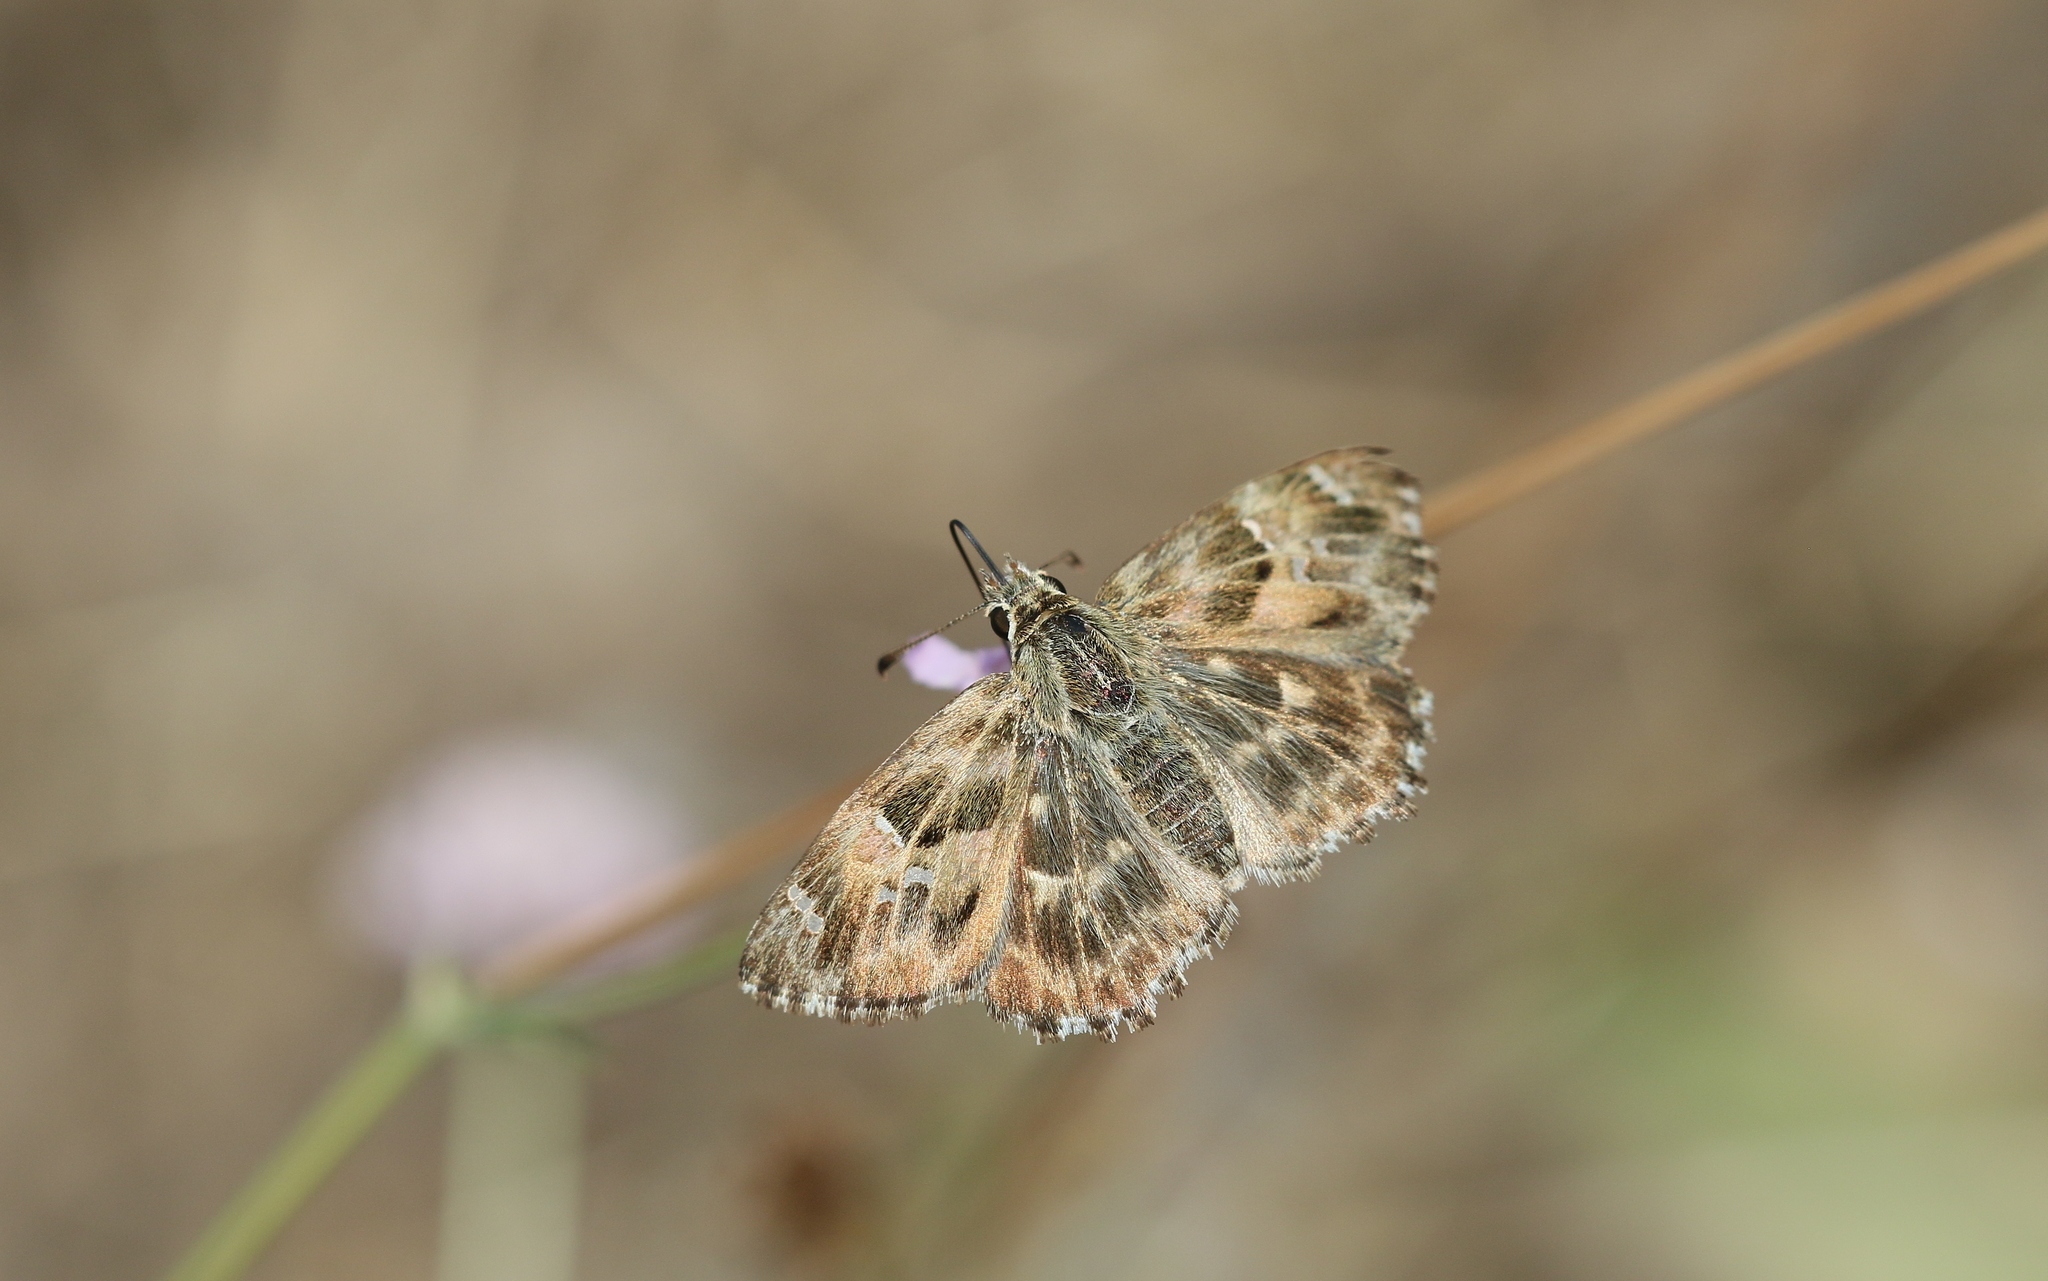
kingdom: Animalia
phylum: Arthropoda
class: Insecta
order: Lepidoptera
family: Hesperiidae
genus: Carcharodus
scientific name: Carcharodus alceae
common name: Mallow skipper
